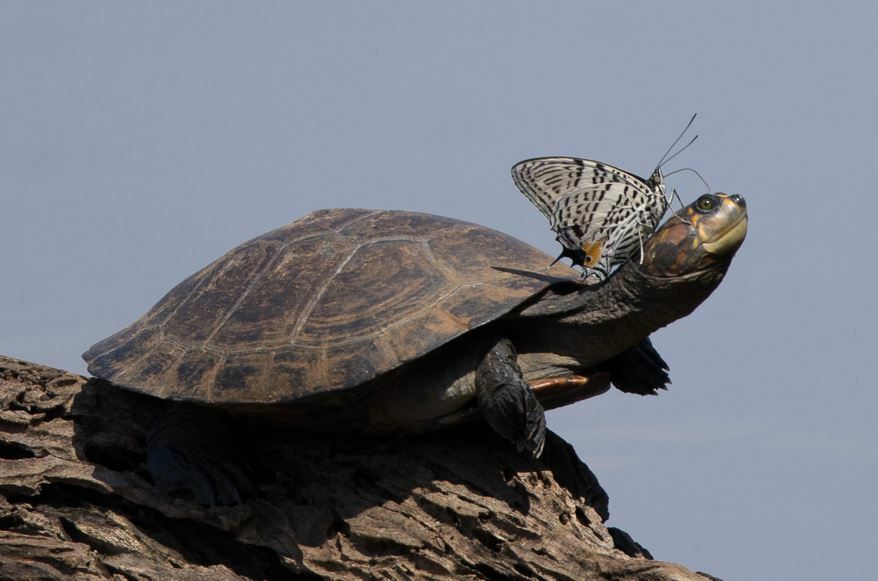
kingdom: Animalia
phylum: Chordata
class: Testudines
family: Podocnemididae
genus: Podocnemis
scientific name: Podocnemis unifilis
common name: Yellow-spotted amazon river turtle
